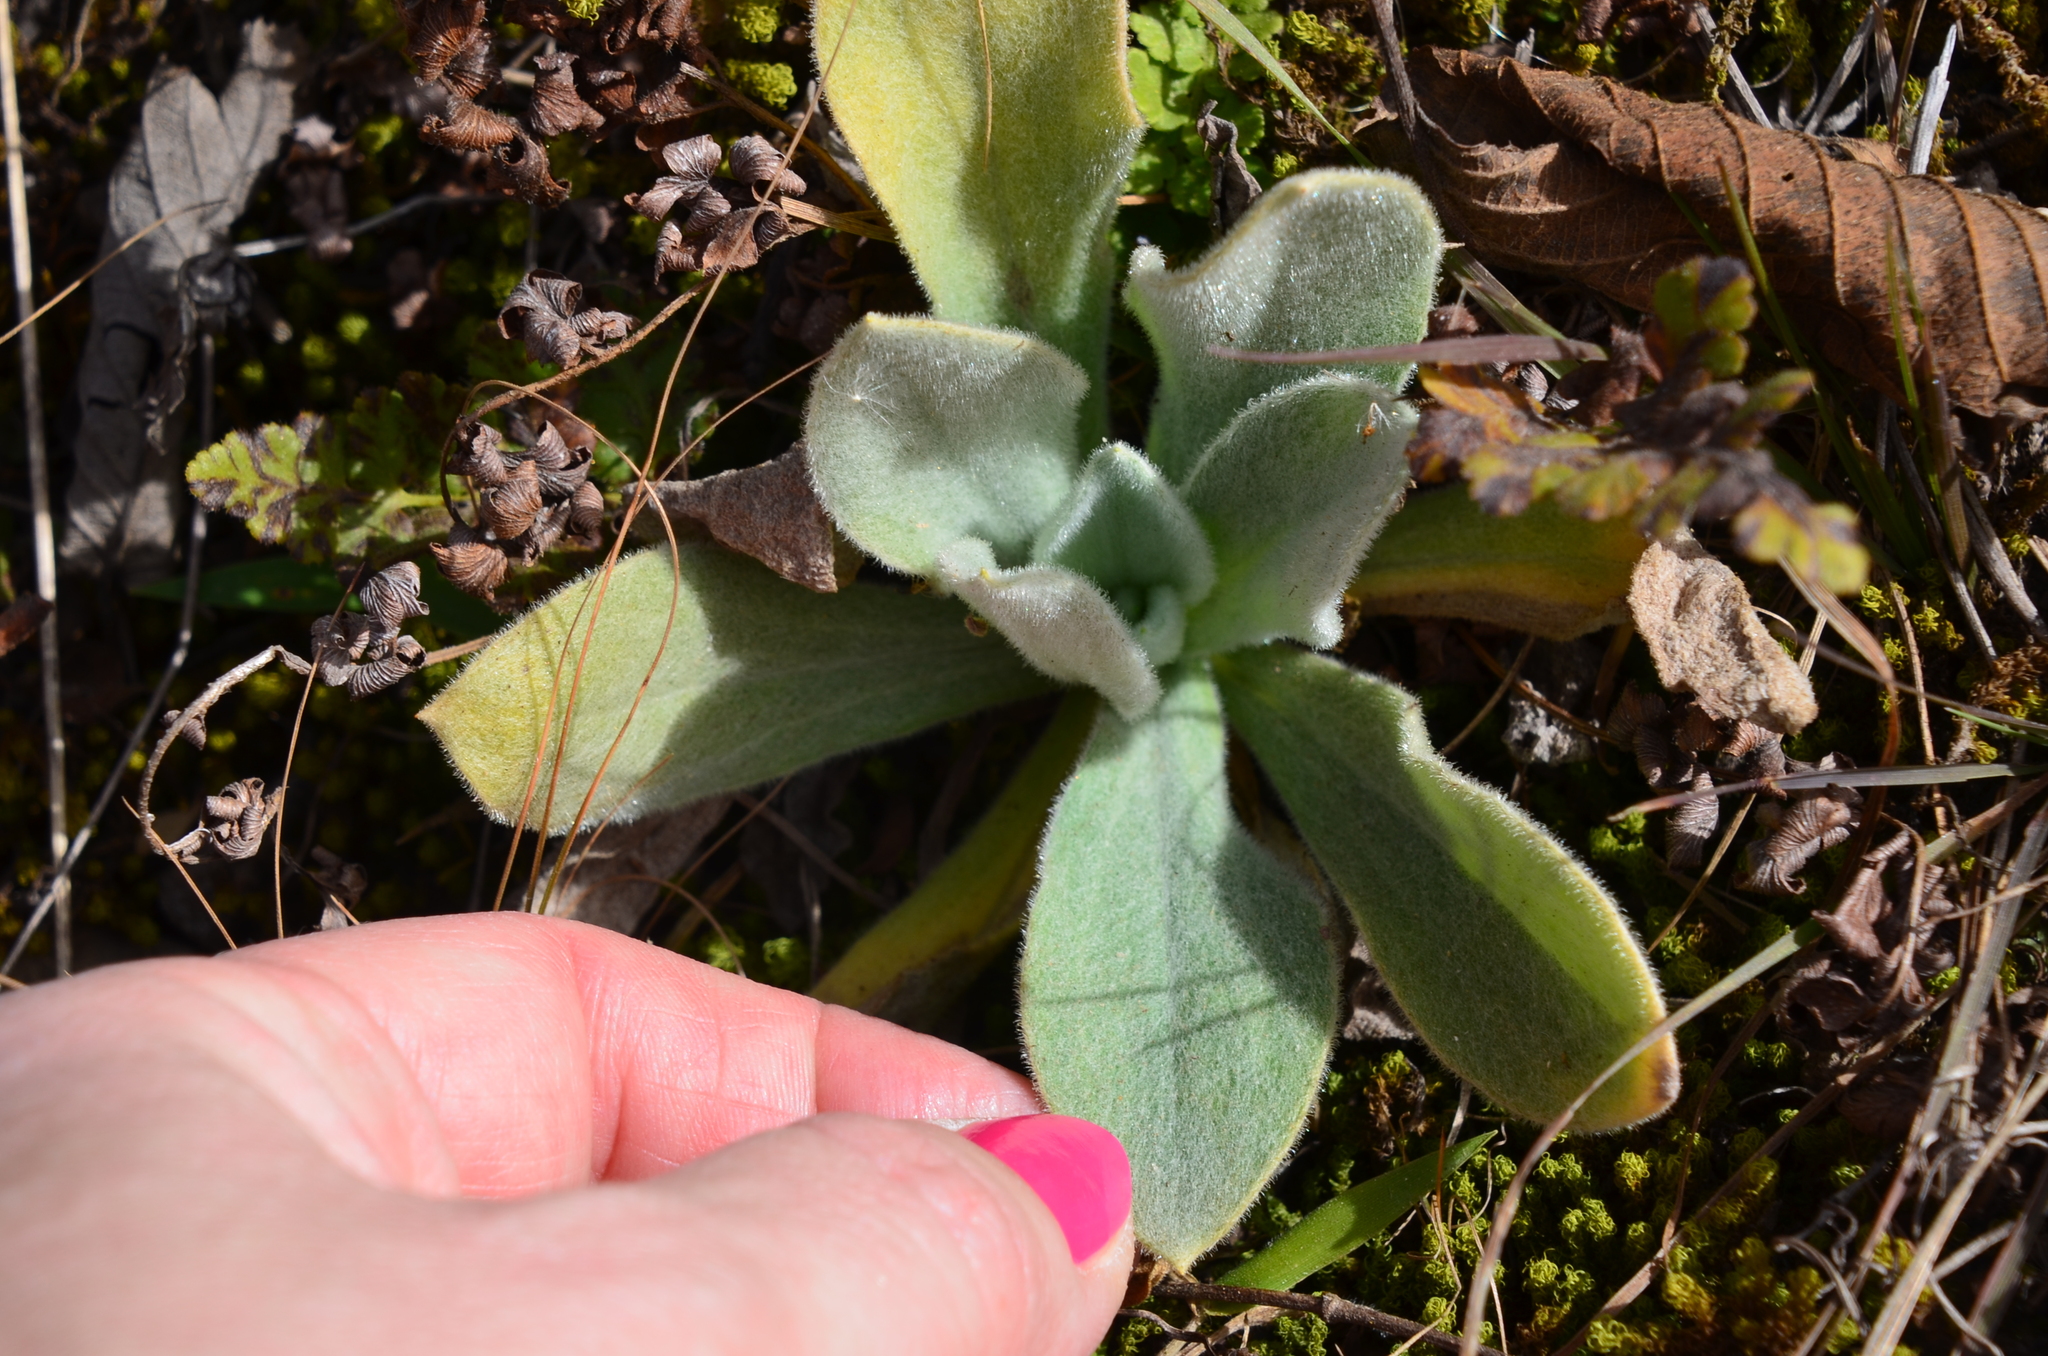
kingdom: Plantae
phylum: Tracheophyta
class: Magnoliopsida
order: Lamiales
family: Scrophulariaceae
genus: Verbascum
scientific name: Verbascum thapsus
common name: Common mullein
